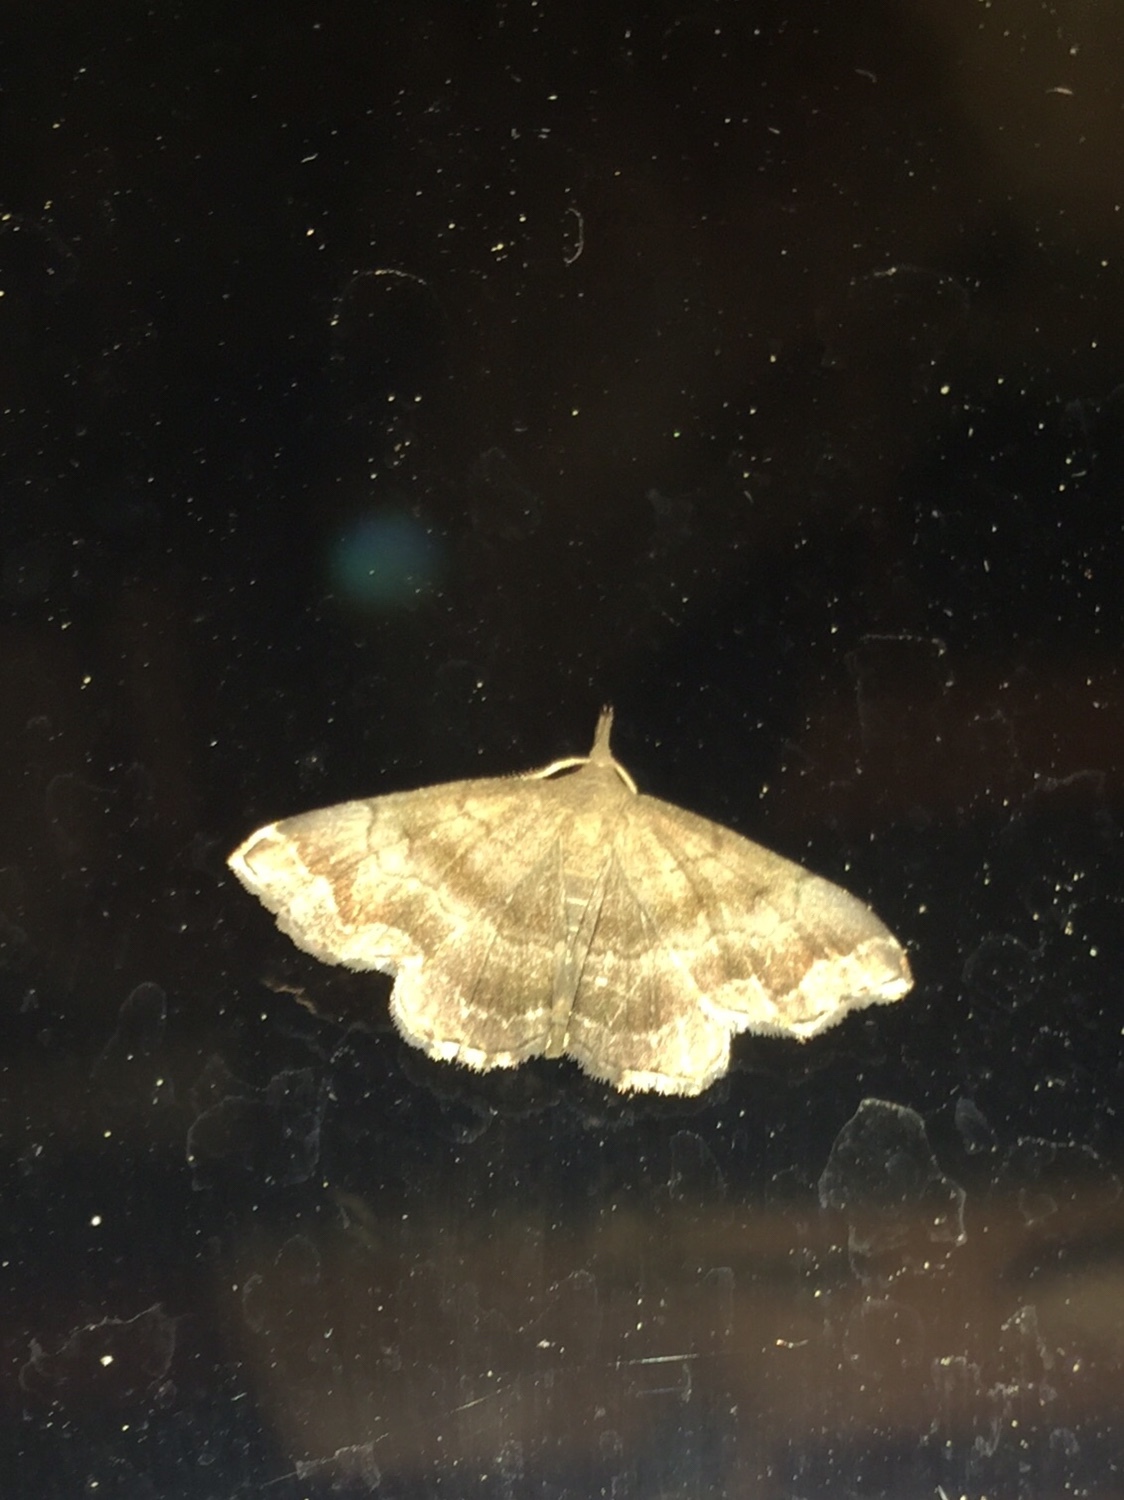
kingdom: Animalia
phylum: Arthropoda
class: Insecta
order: Lepidoptera
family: Erebidae
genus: Phalaenostola
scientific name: Phalaenostola larentioides
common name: Black-banded owlet
